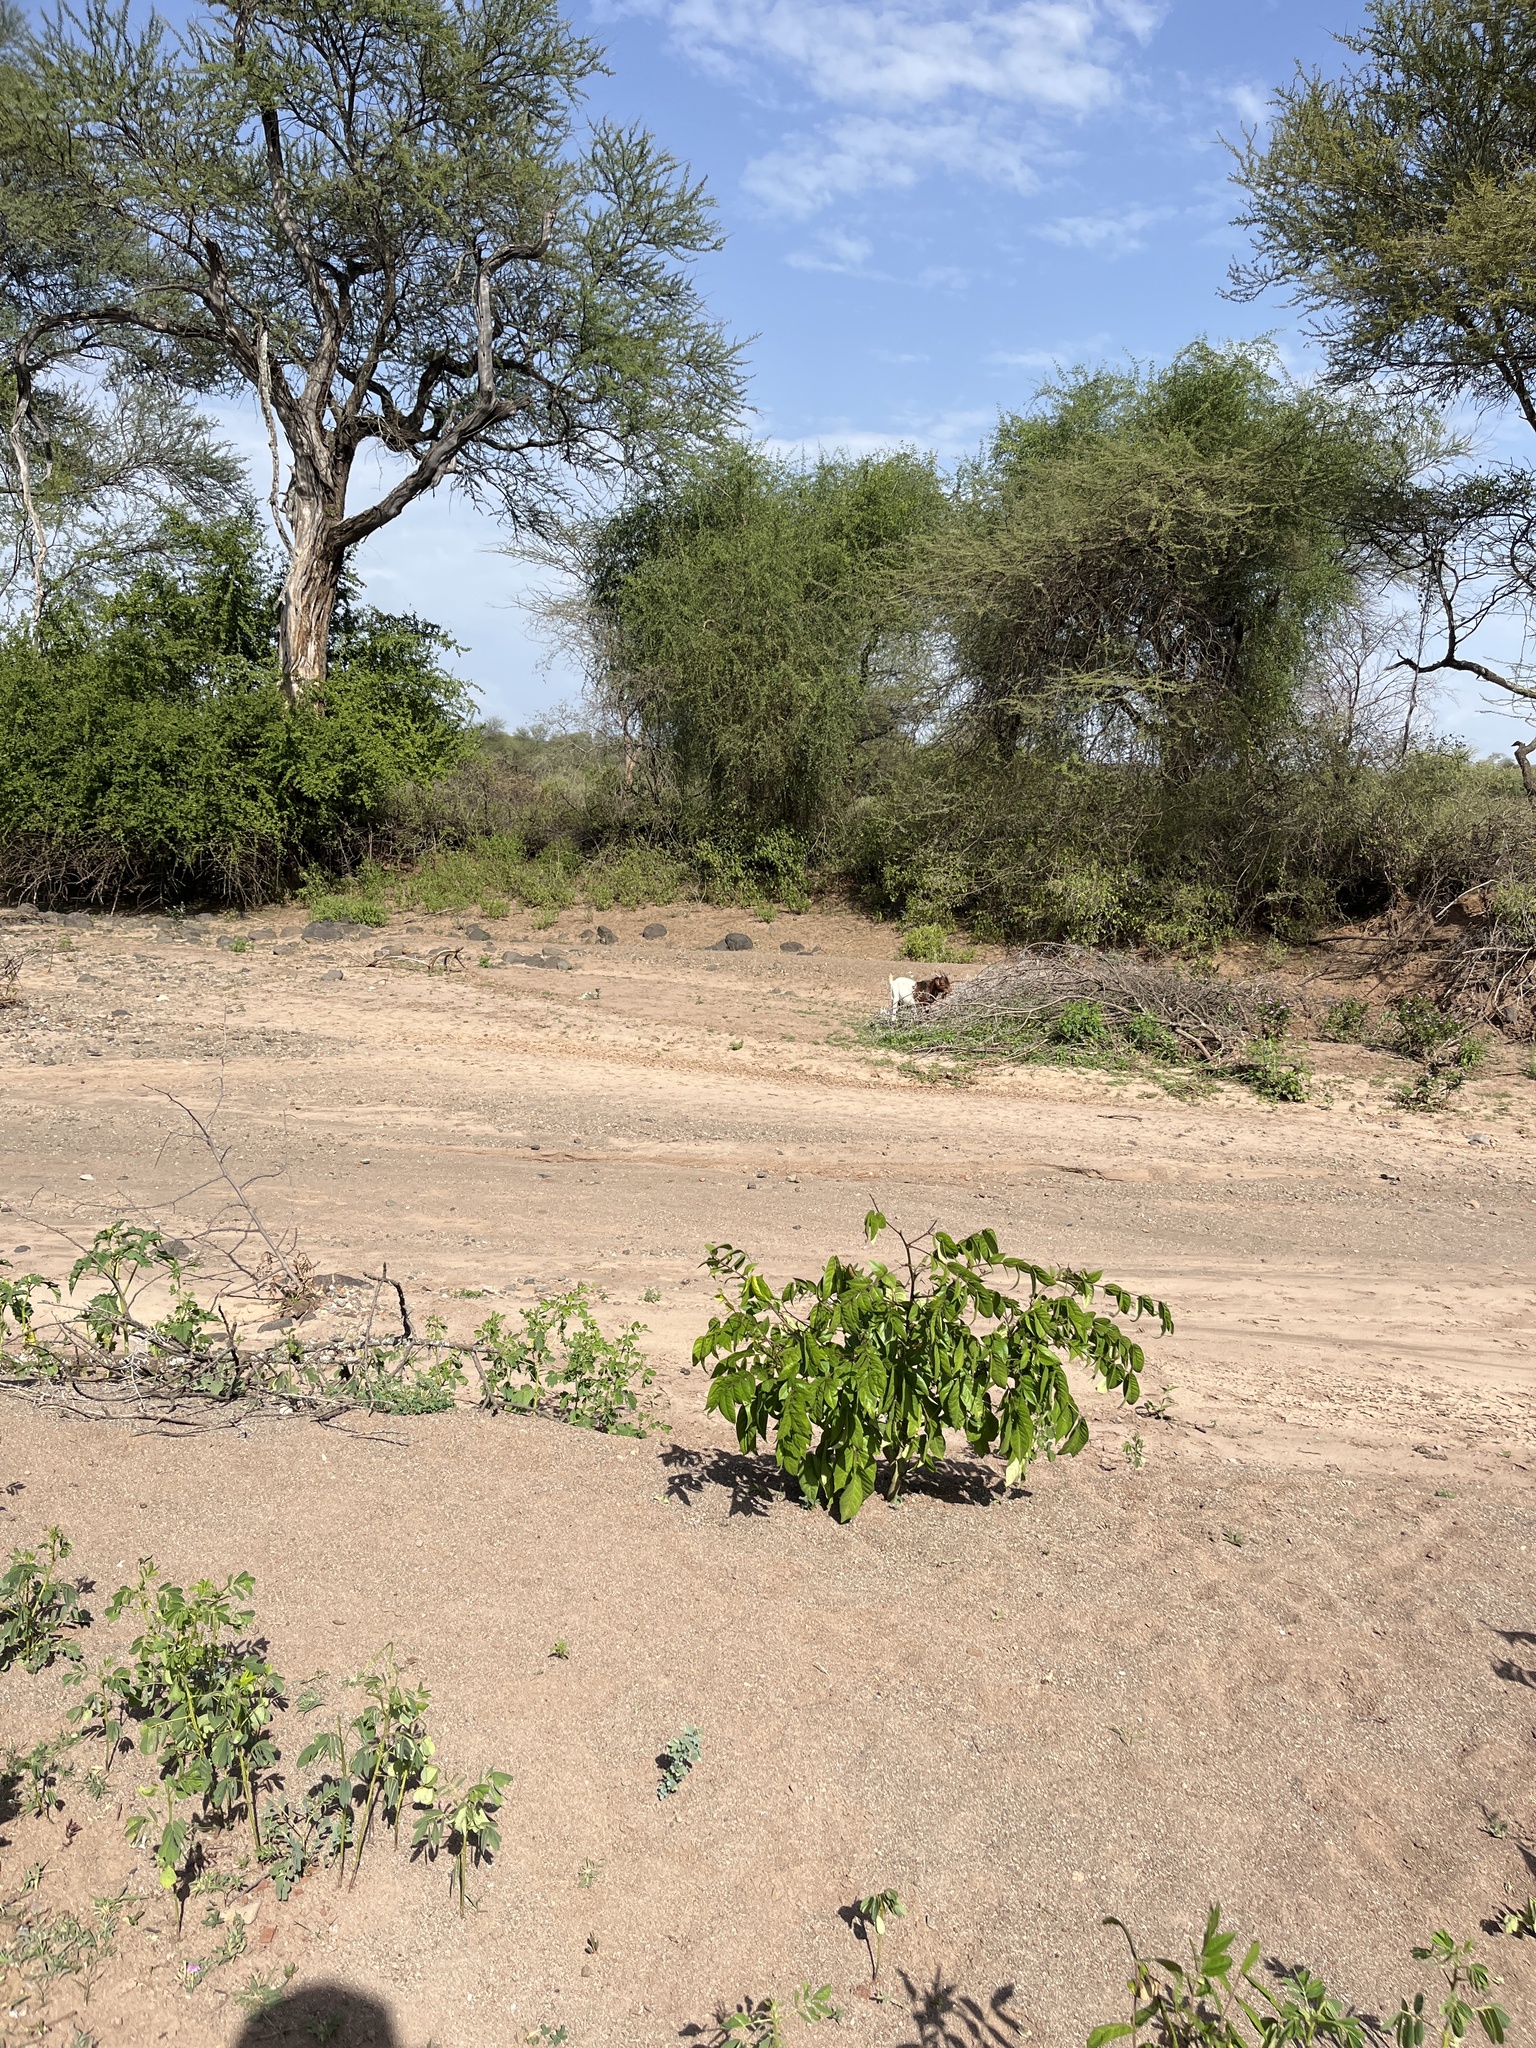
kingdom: Animalia
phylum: Chordata
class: Mammalia
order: Artiodactyla
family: Bovidae
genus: Capra
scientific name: Capra hircus
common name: Domestic goat
